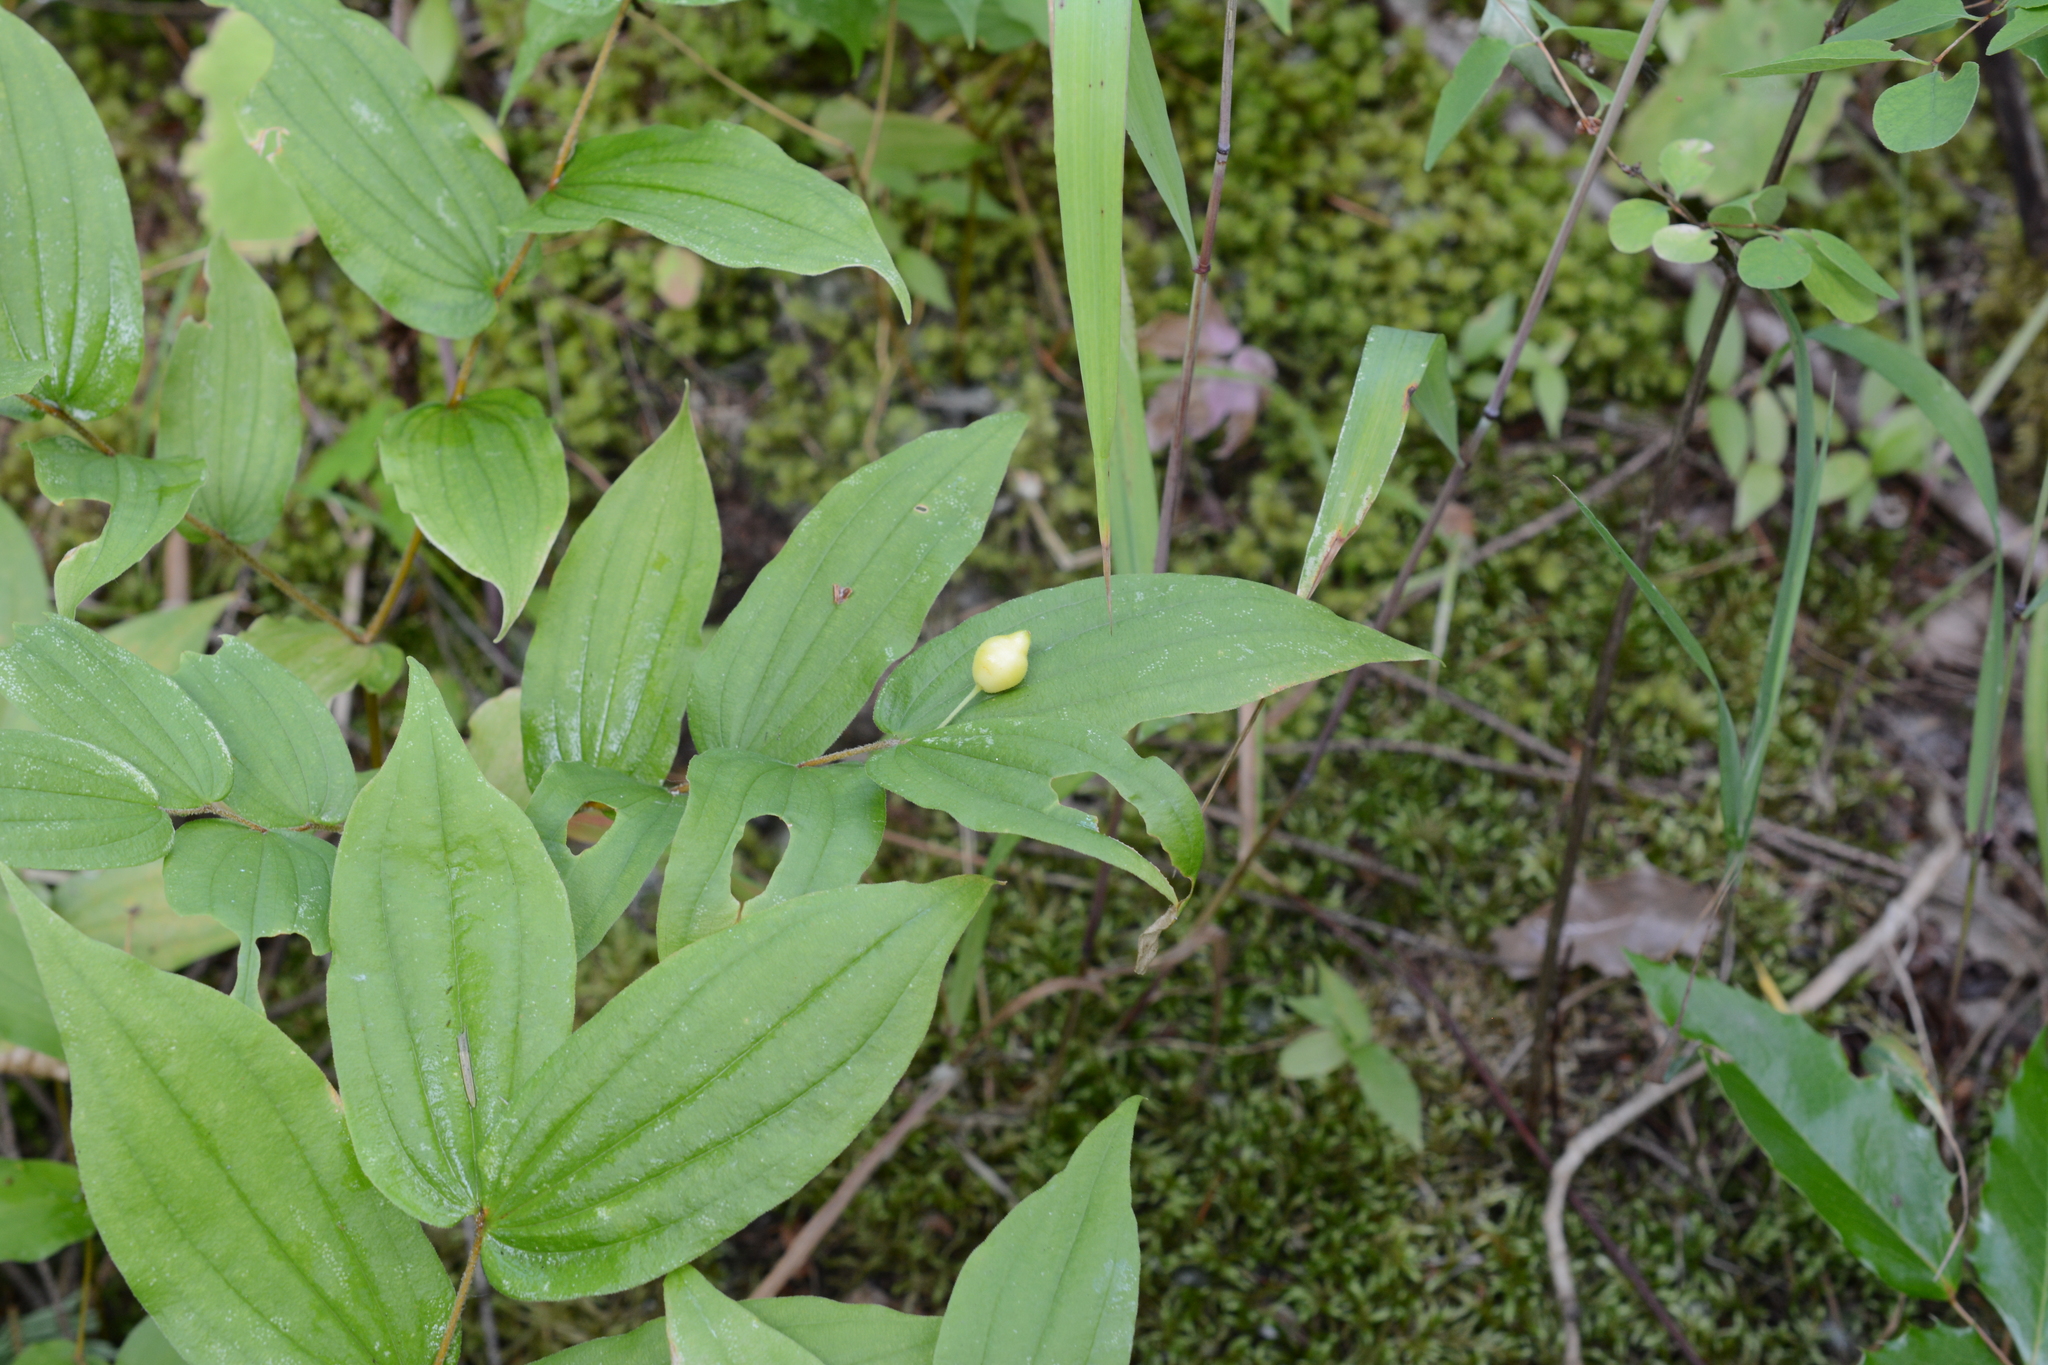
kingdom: Plantae
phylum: Tracheophyta
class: Liliopsida
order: Liliales
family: Liliaceae
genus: Prosartes
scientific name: Prosartes hookeri
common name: Fairy-bells
